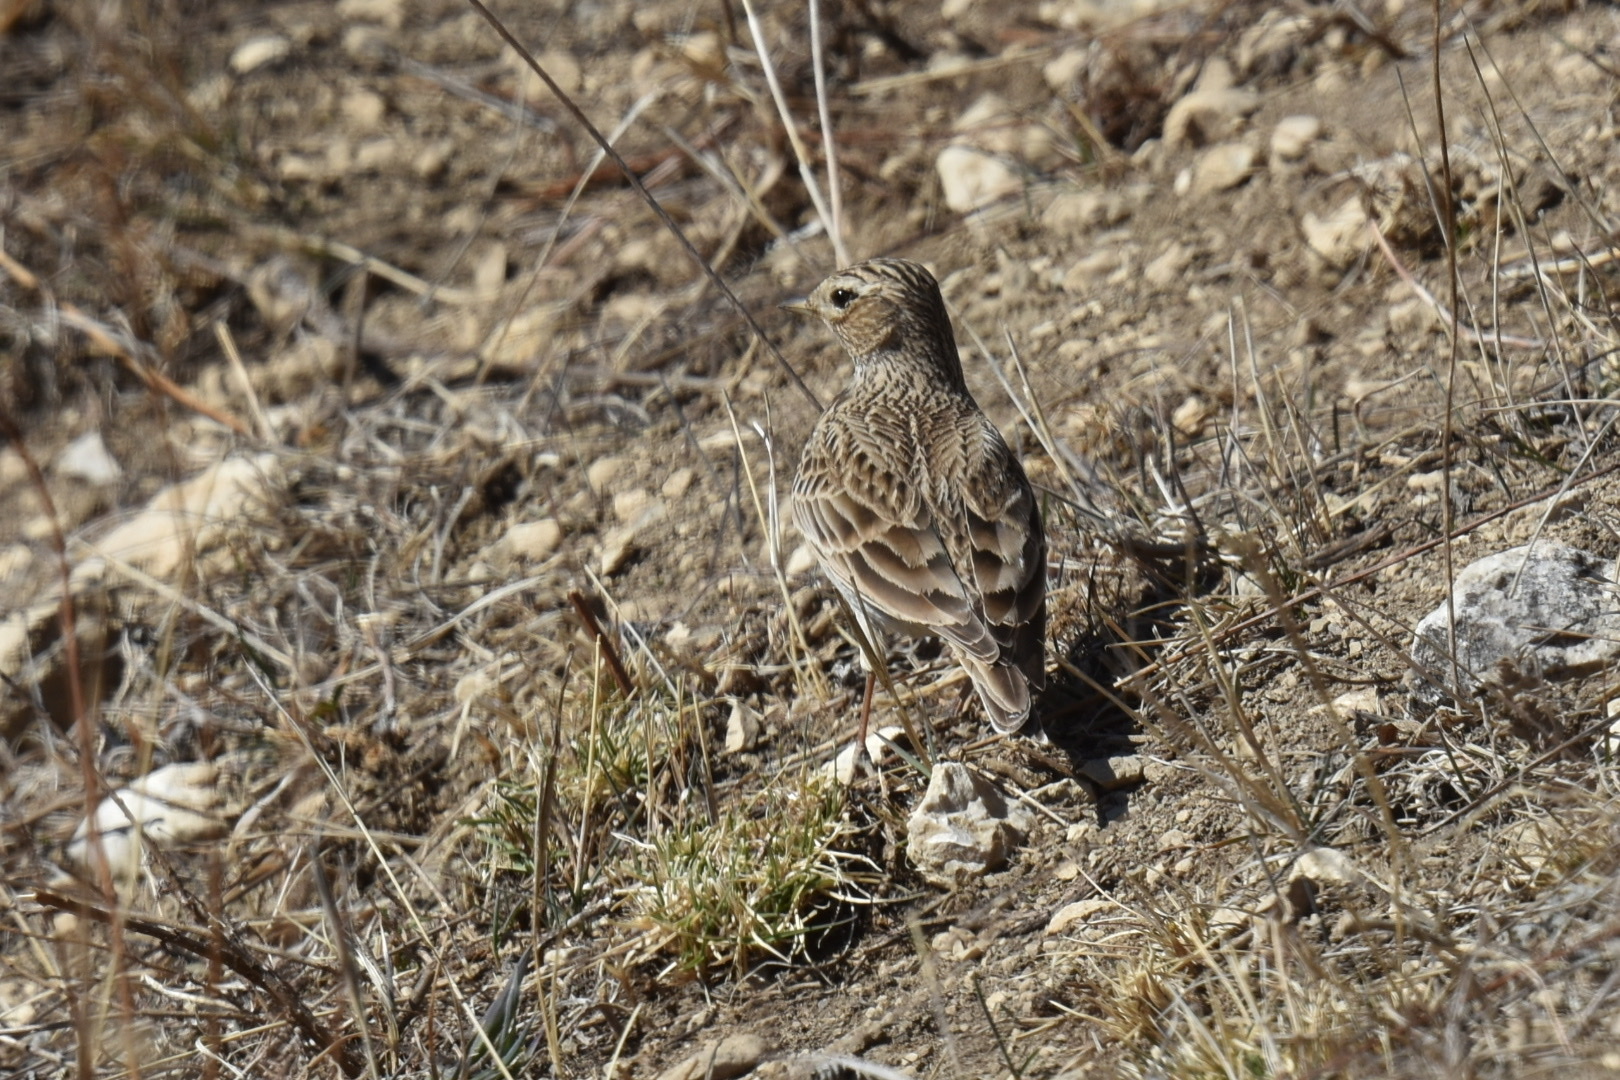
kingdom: Animalia
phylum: Chordata
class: Aves
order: Passeriformes
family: Alaudidae
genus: Alauda
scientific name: Alauda arvensis
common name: Eurasian skylark
